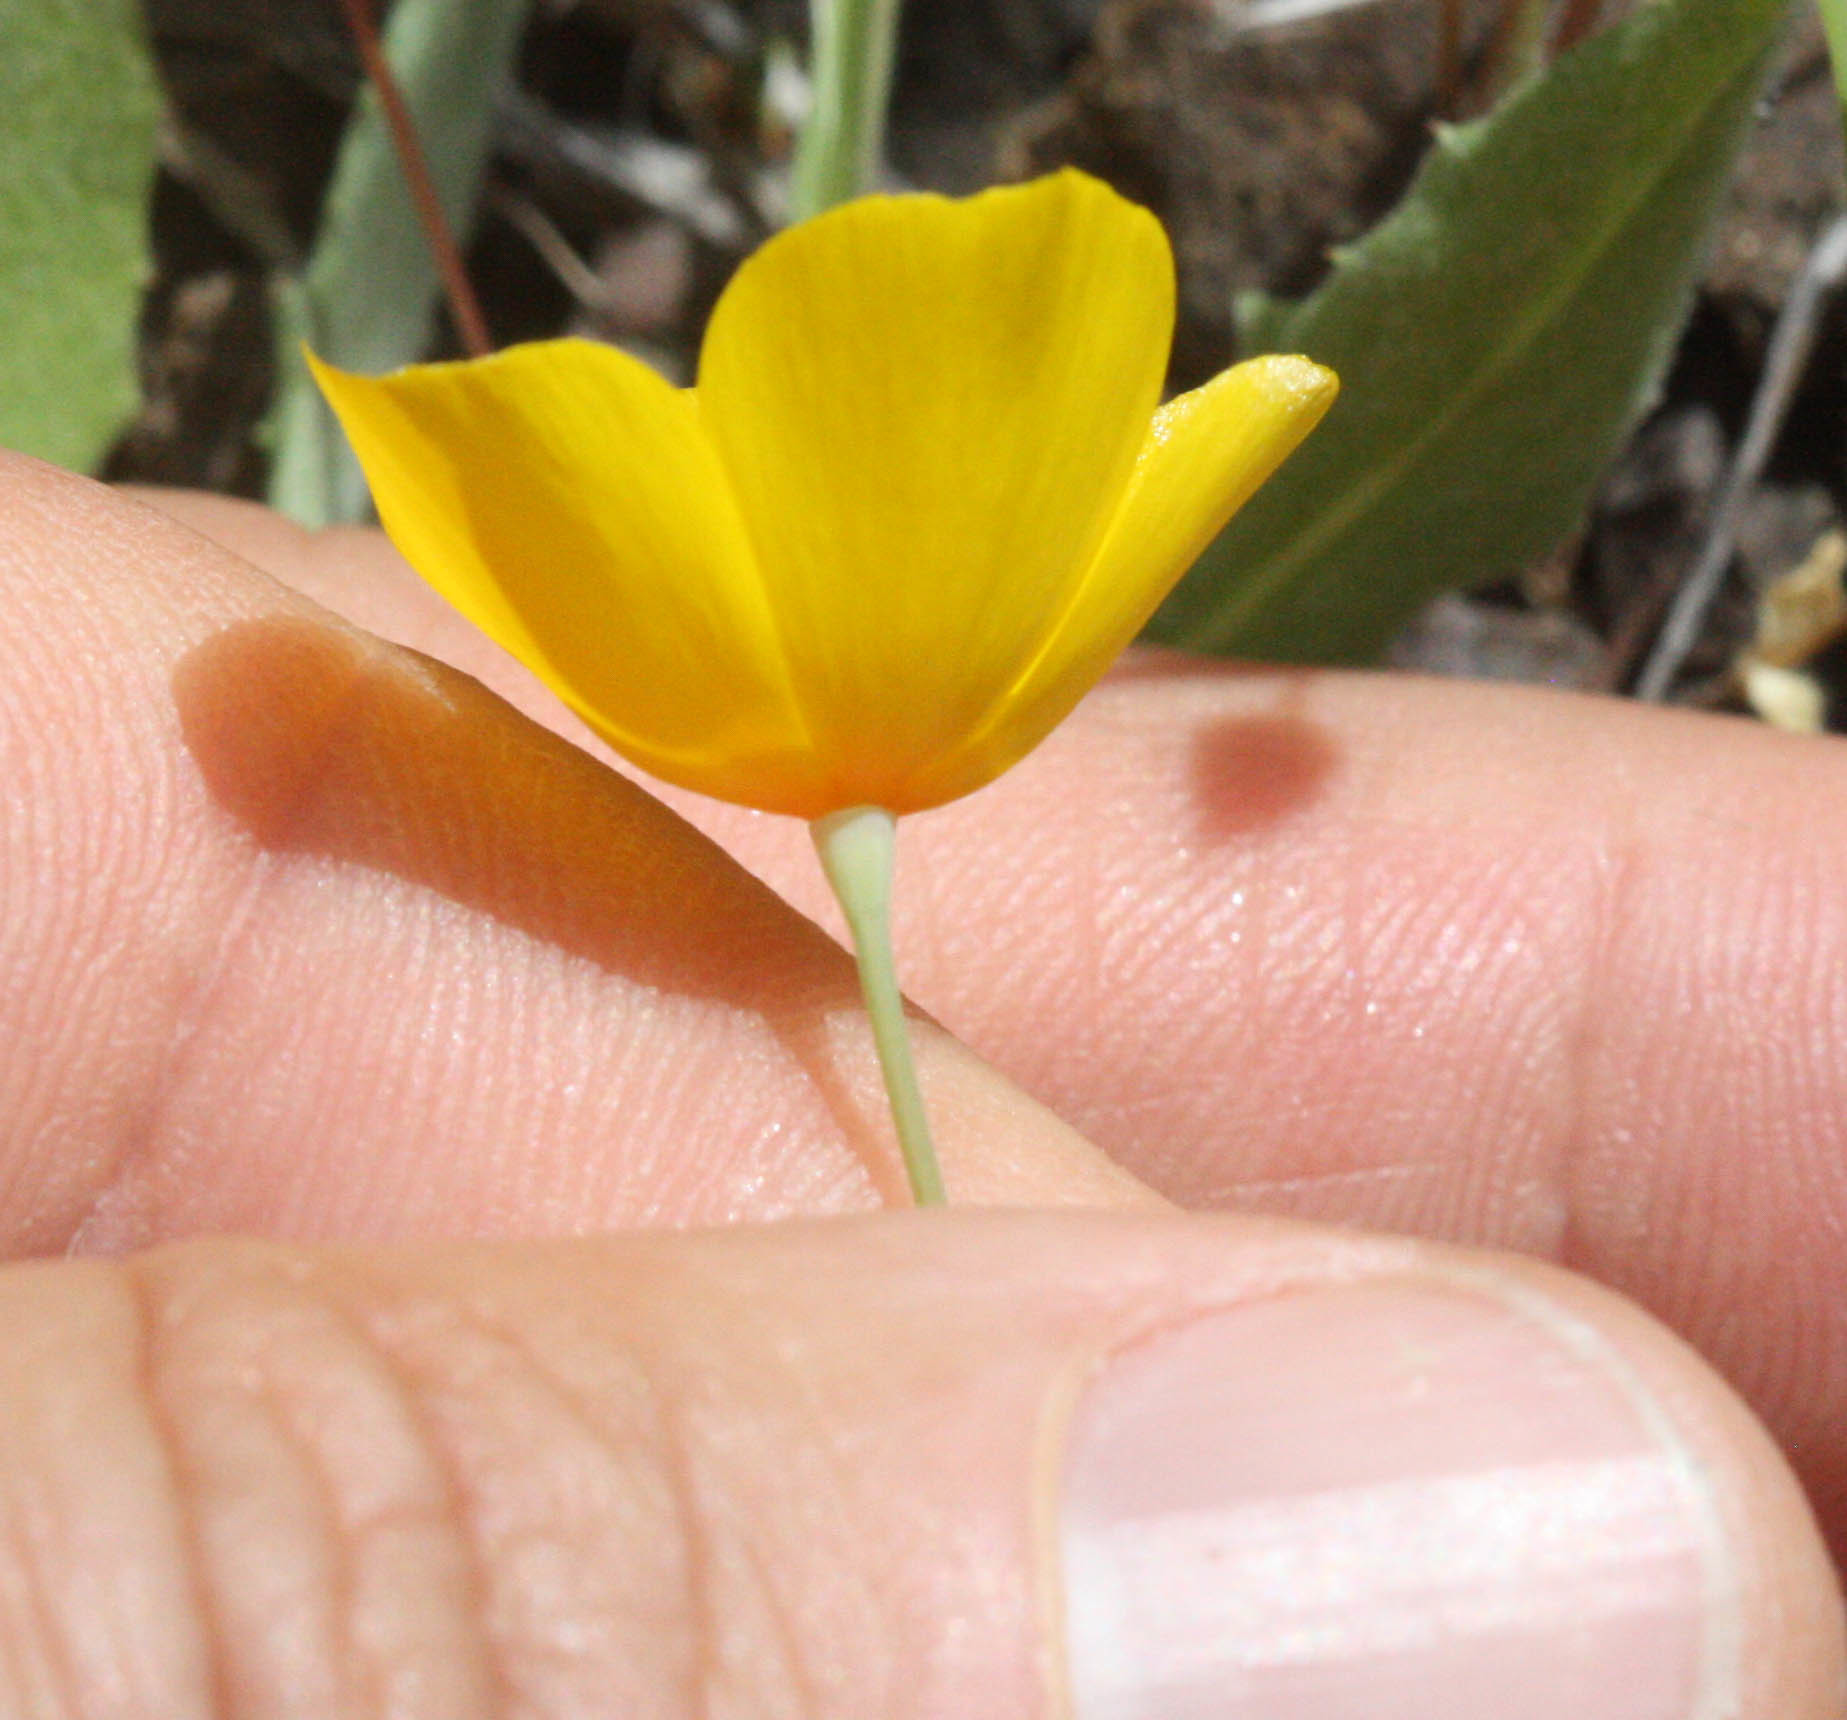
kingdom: Plantae
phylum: Tracheophyta
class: Magnoliopsida
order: Ranunculales
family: Papaveraceae
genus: Eschscholzia
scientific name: Eschscholzia caespitosa
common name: Tufted california-poppy
